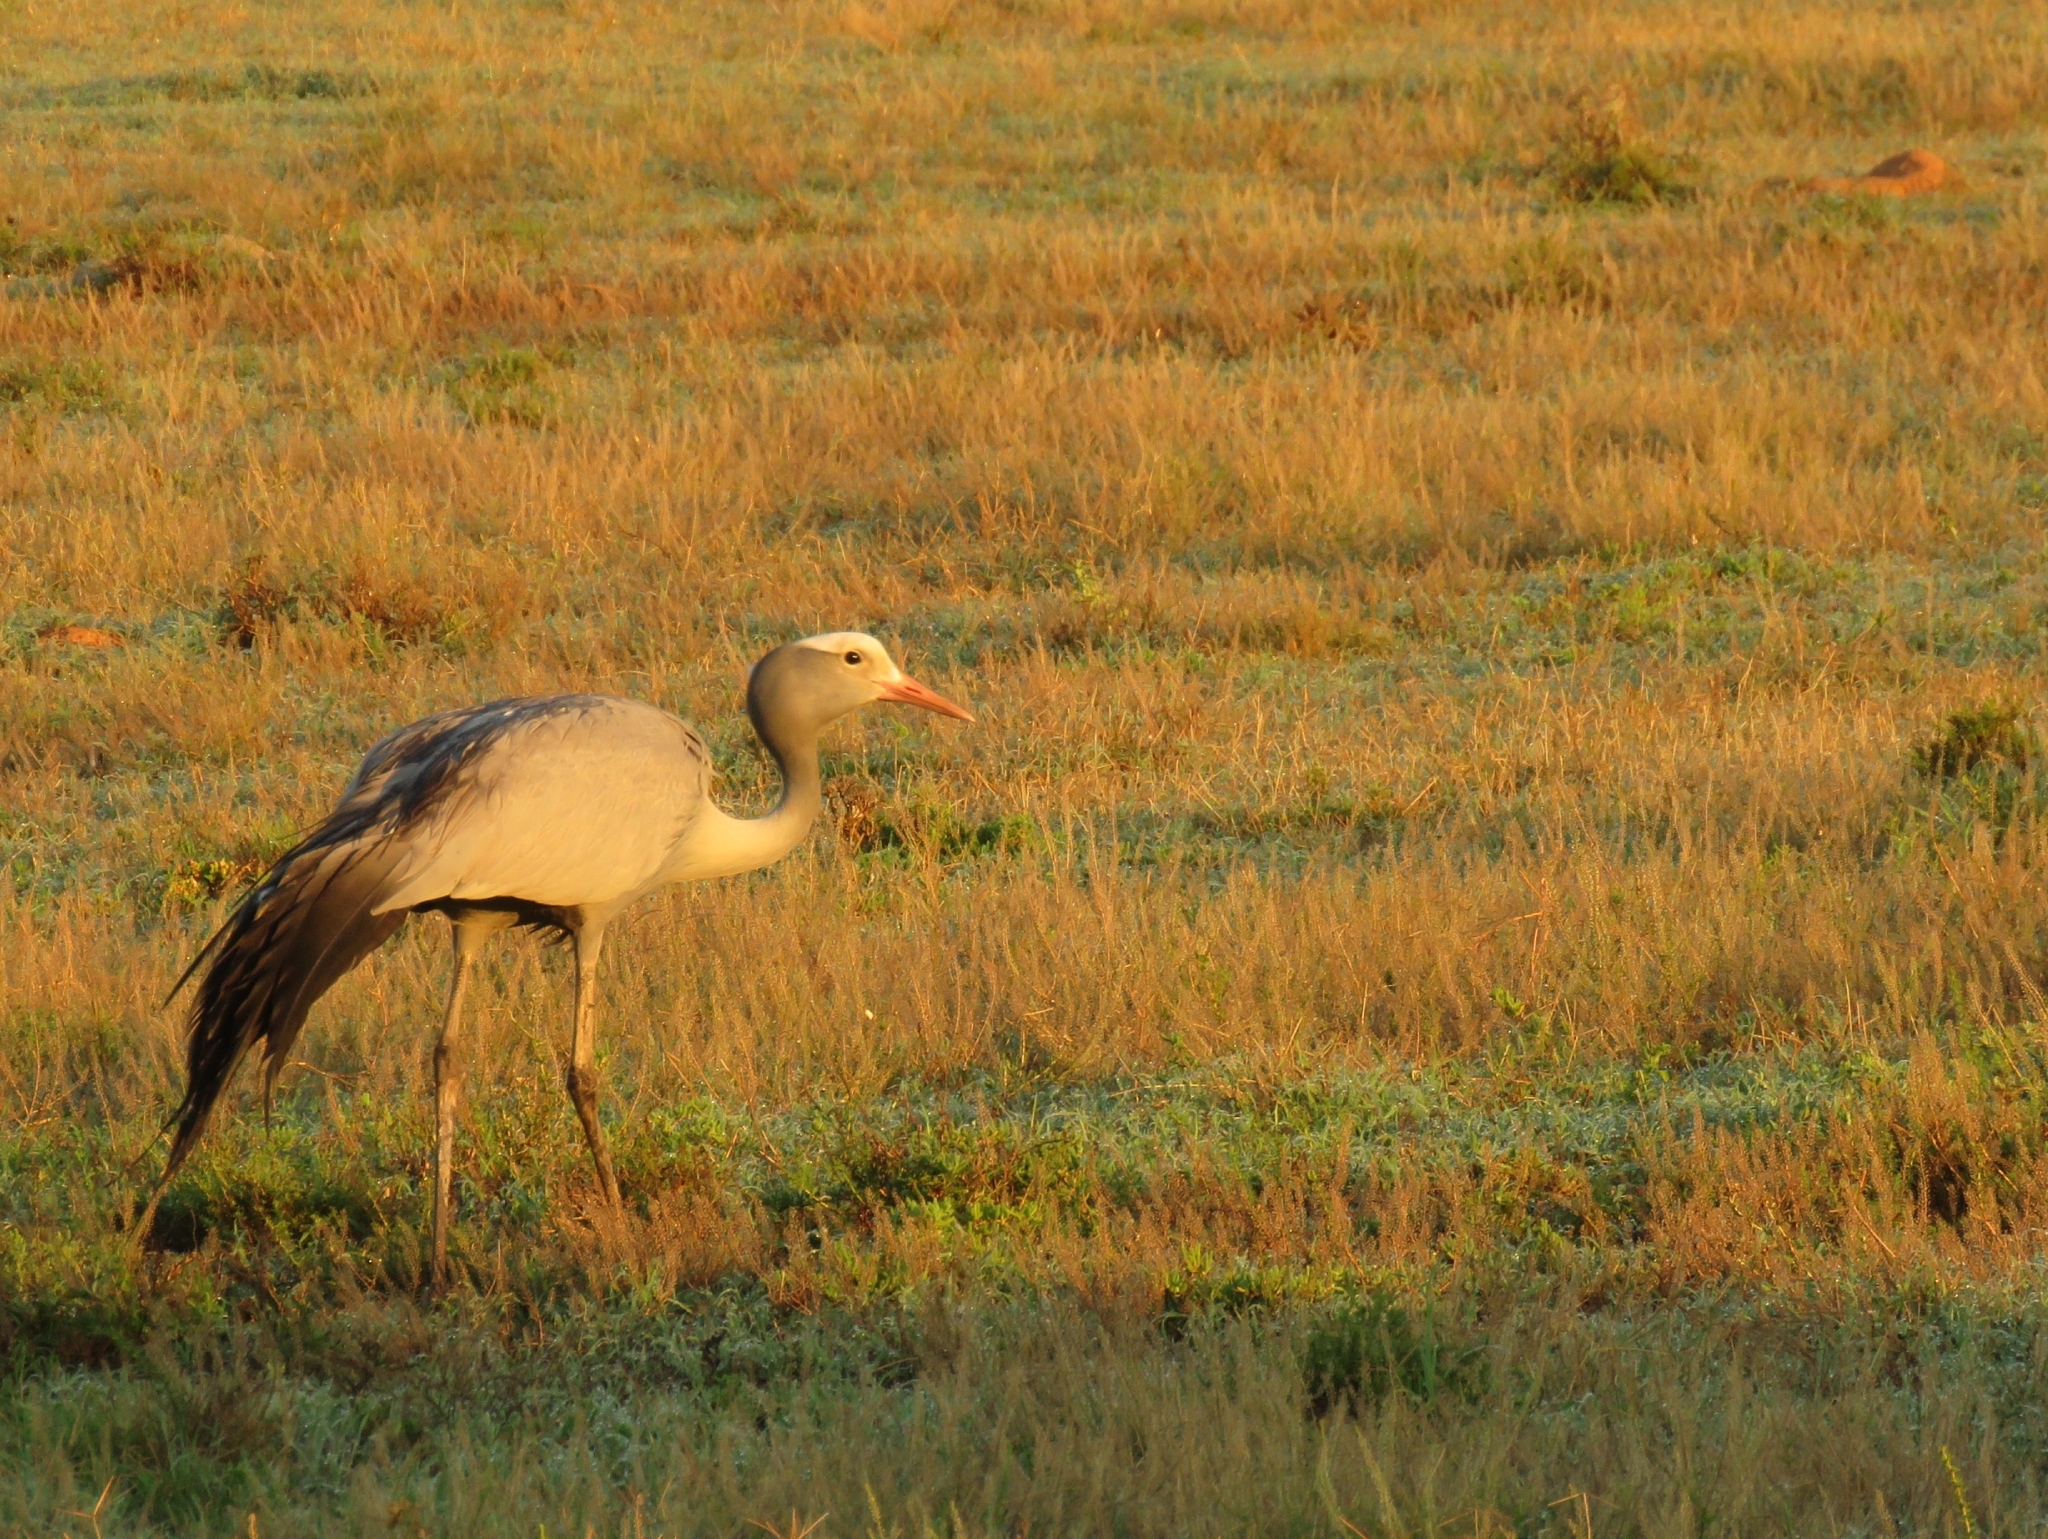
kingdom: Animalia
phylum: Chordata
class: Aves
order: Gruiformes
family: Gruidae
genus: Anthropoides
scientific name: Anthropoides paradiseus
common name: Blue crane
